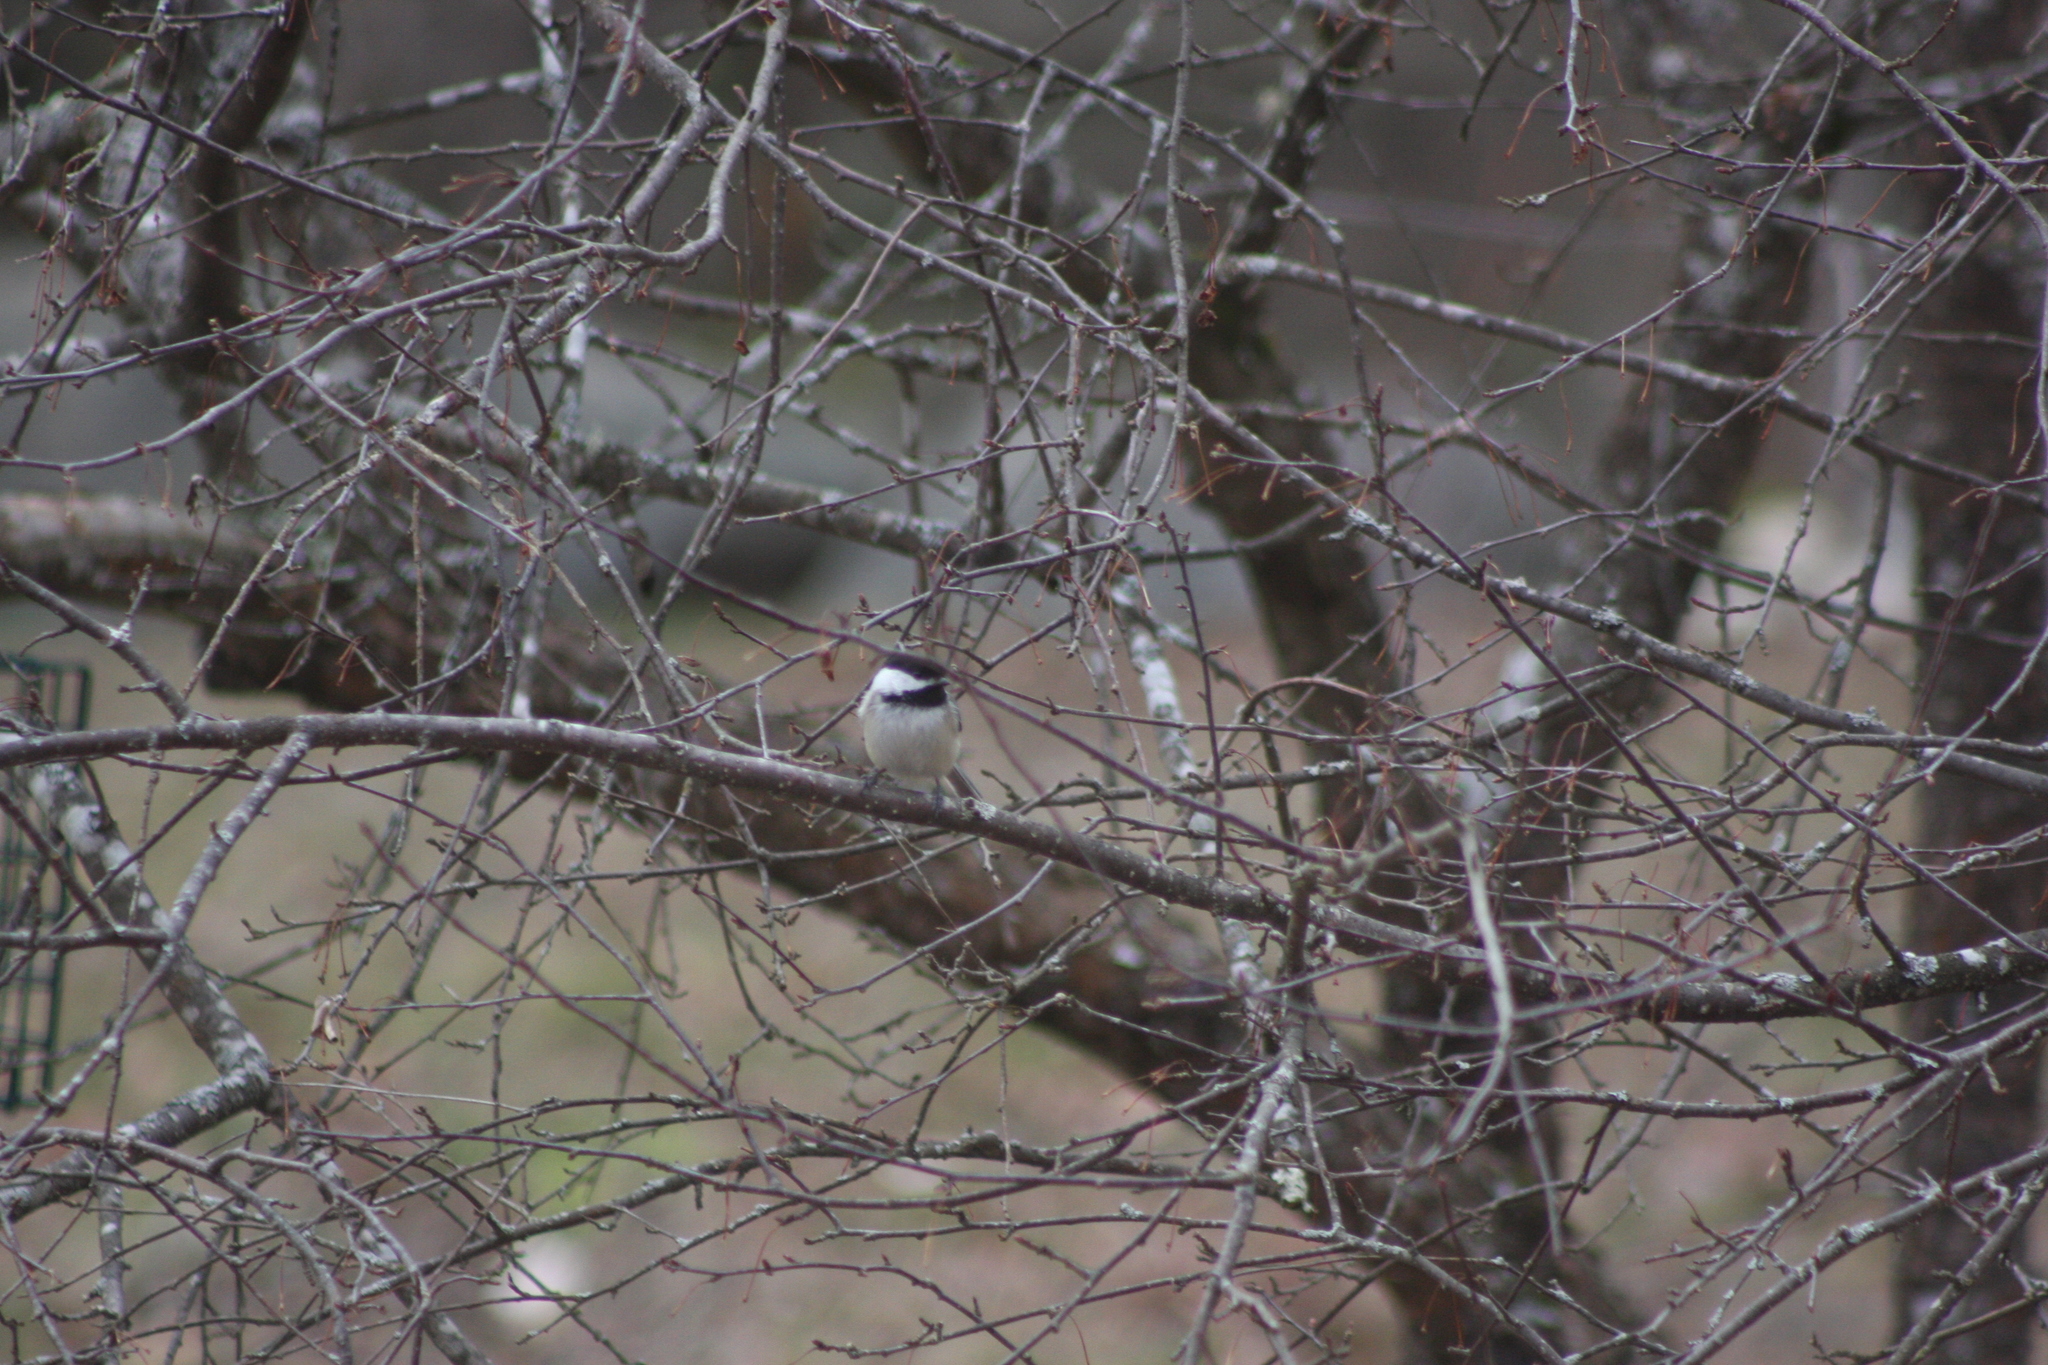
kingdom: Animalia
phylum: Chordata
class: Aves
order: Passeriformes
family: Paridae
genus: Poecile
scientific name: Poecile atricapillus
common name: Black-capped chickadee
